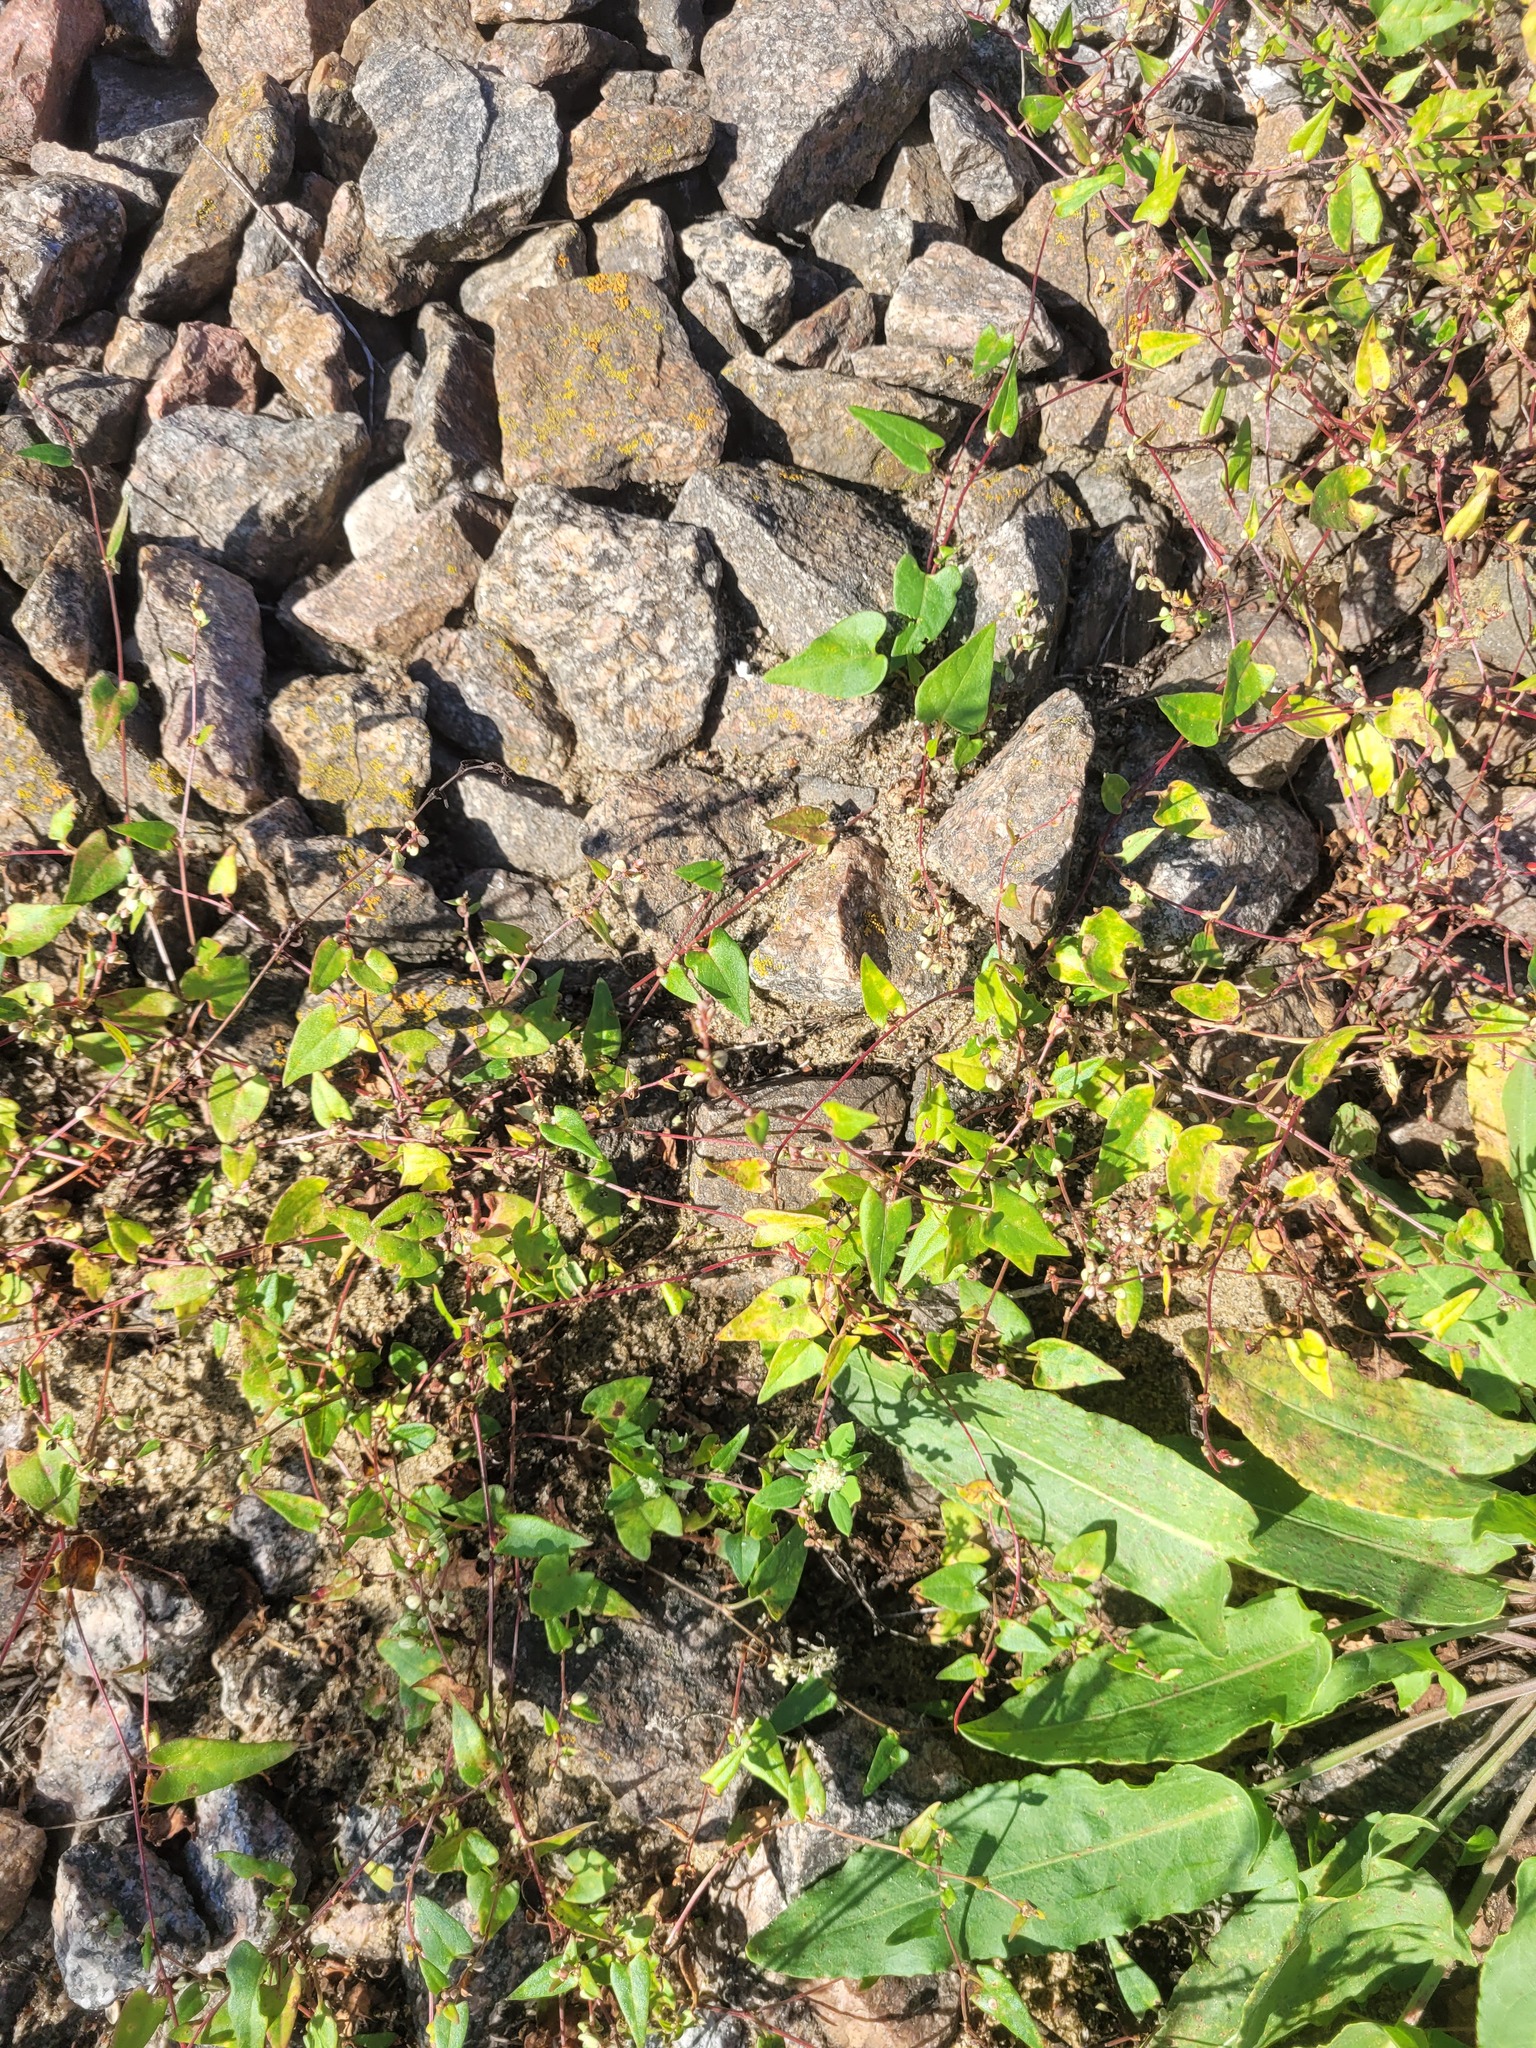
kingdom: Plantae
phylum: Tracheophyta
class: Magnoliopsida
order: Caryophyllales
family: Polygonaceae
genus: Fallopia
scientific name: Fallopia convolvulus
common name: Black bindweed
